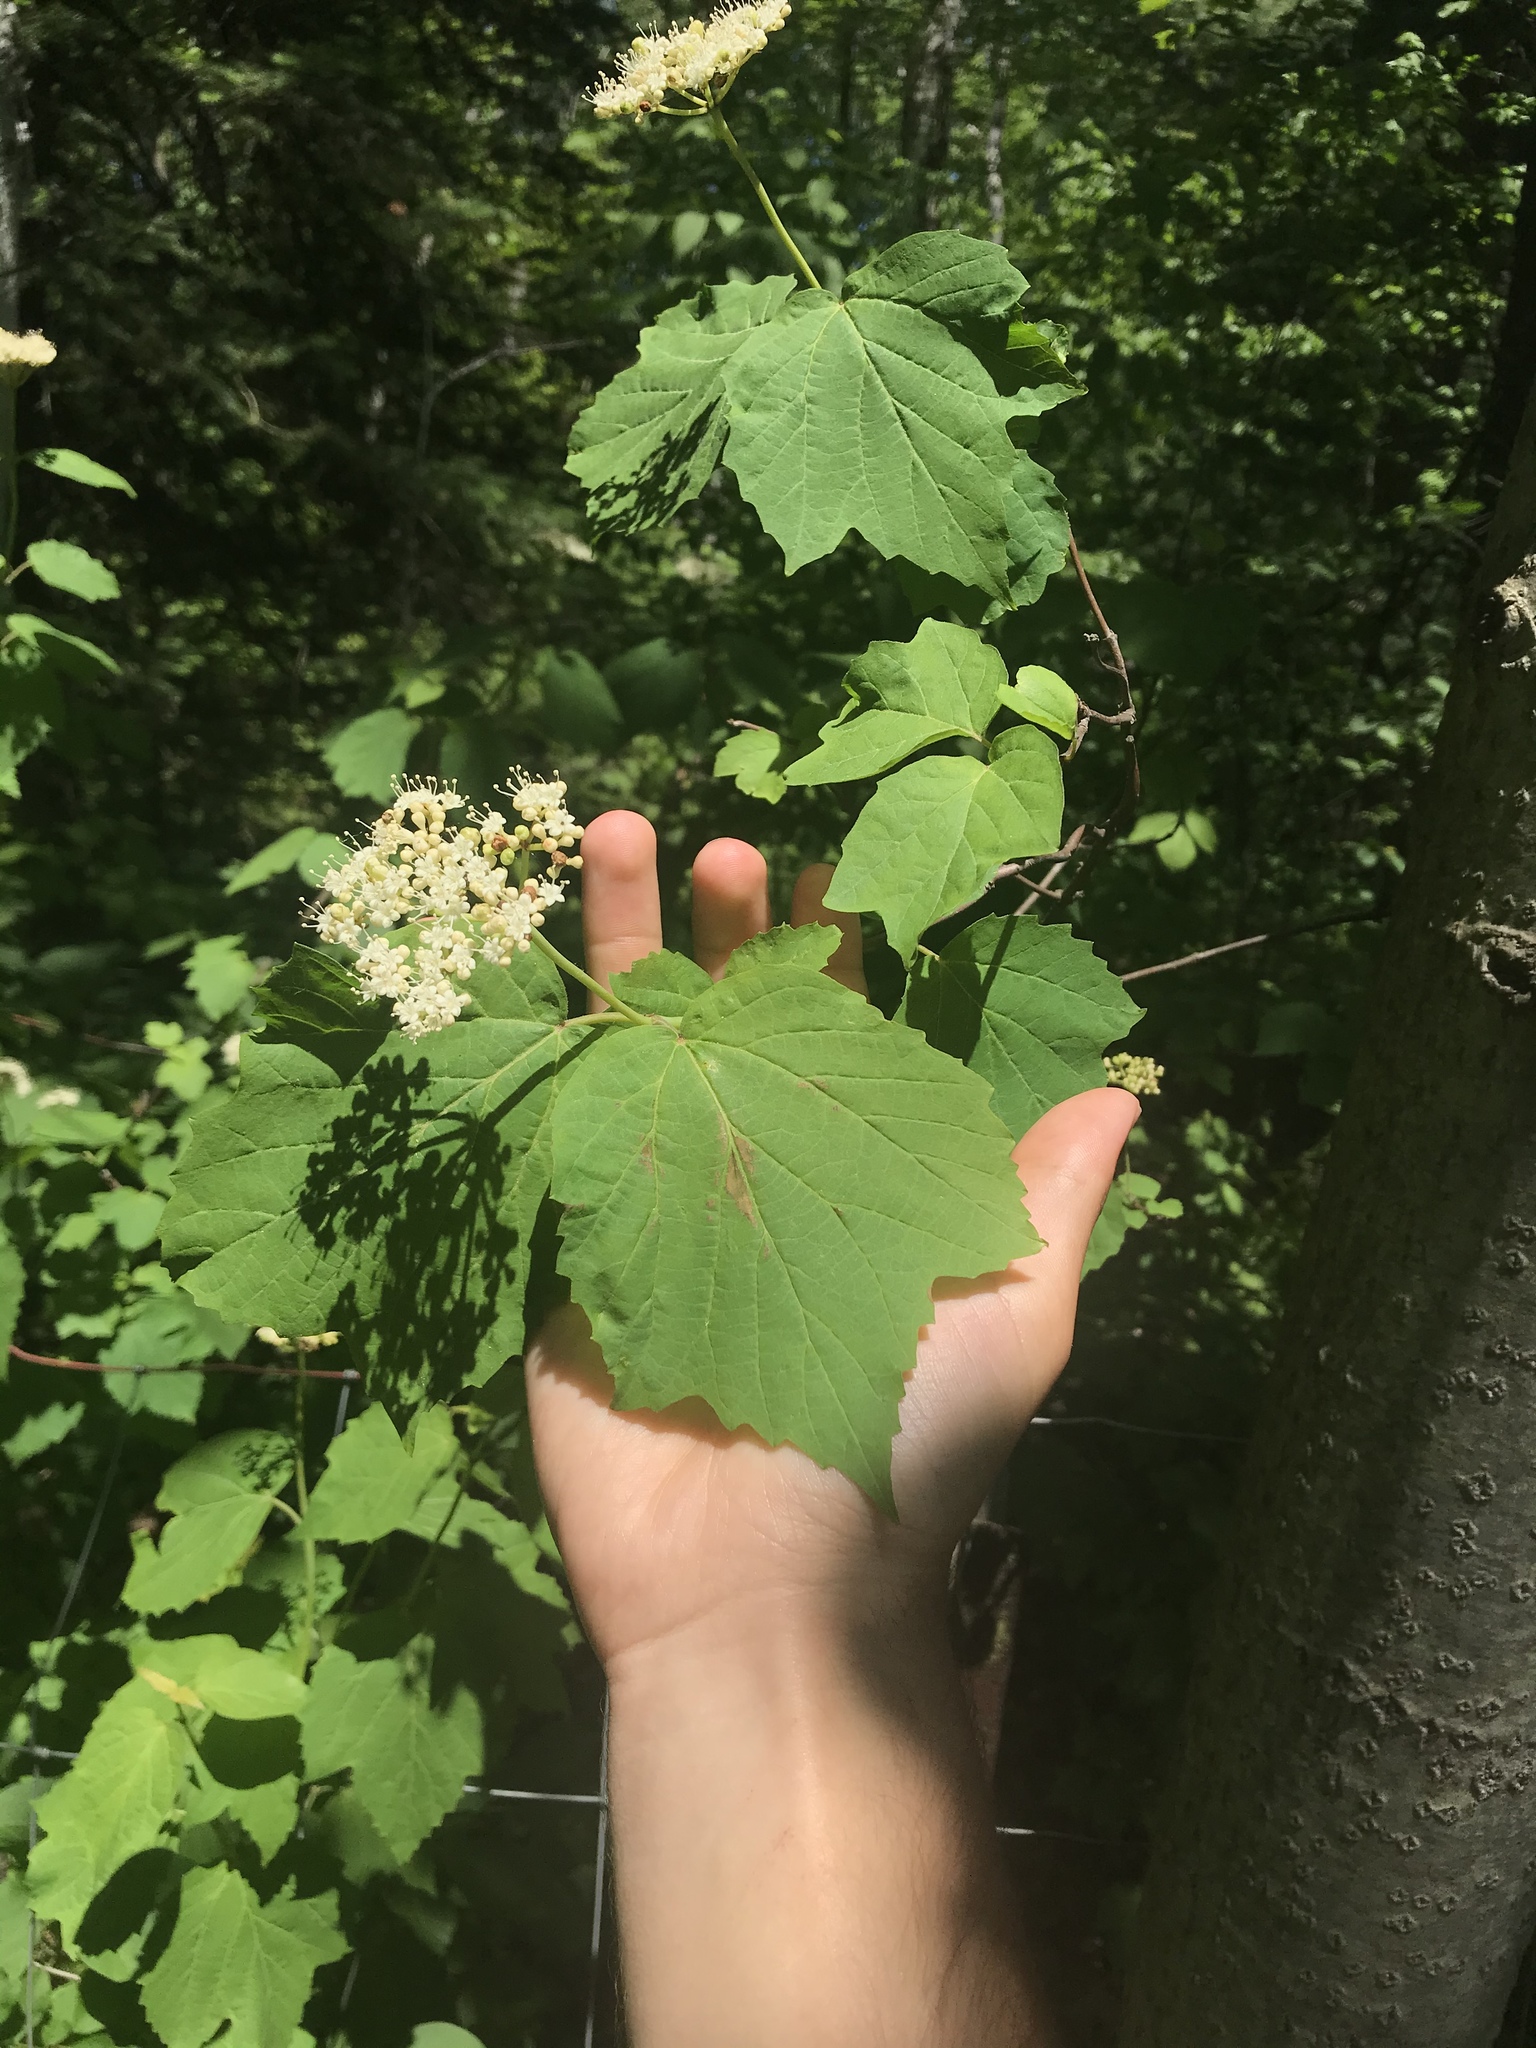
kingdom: Plantae
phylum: Tracheophyta
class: Magnoliopsida
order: Dipsacales
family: Viburnaceae
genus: Viburnum
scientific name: Viburnum acerifolium
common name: Dockmackie
